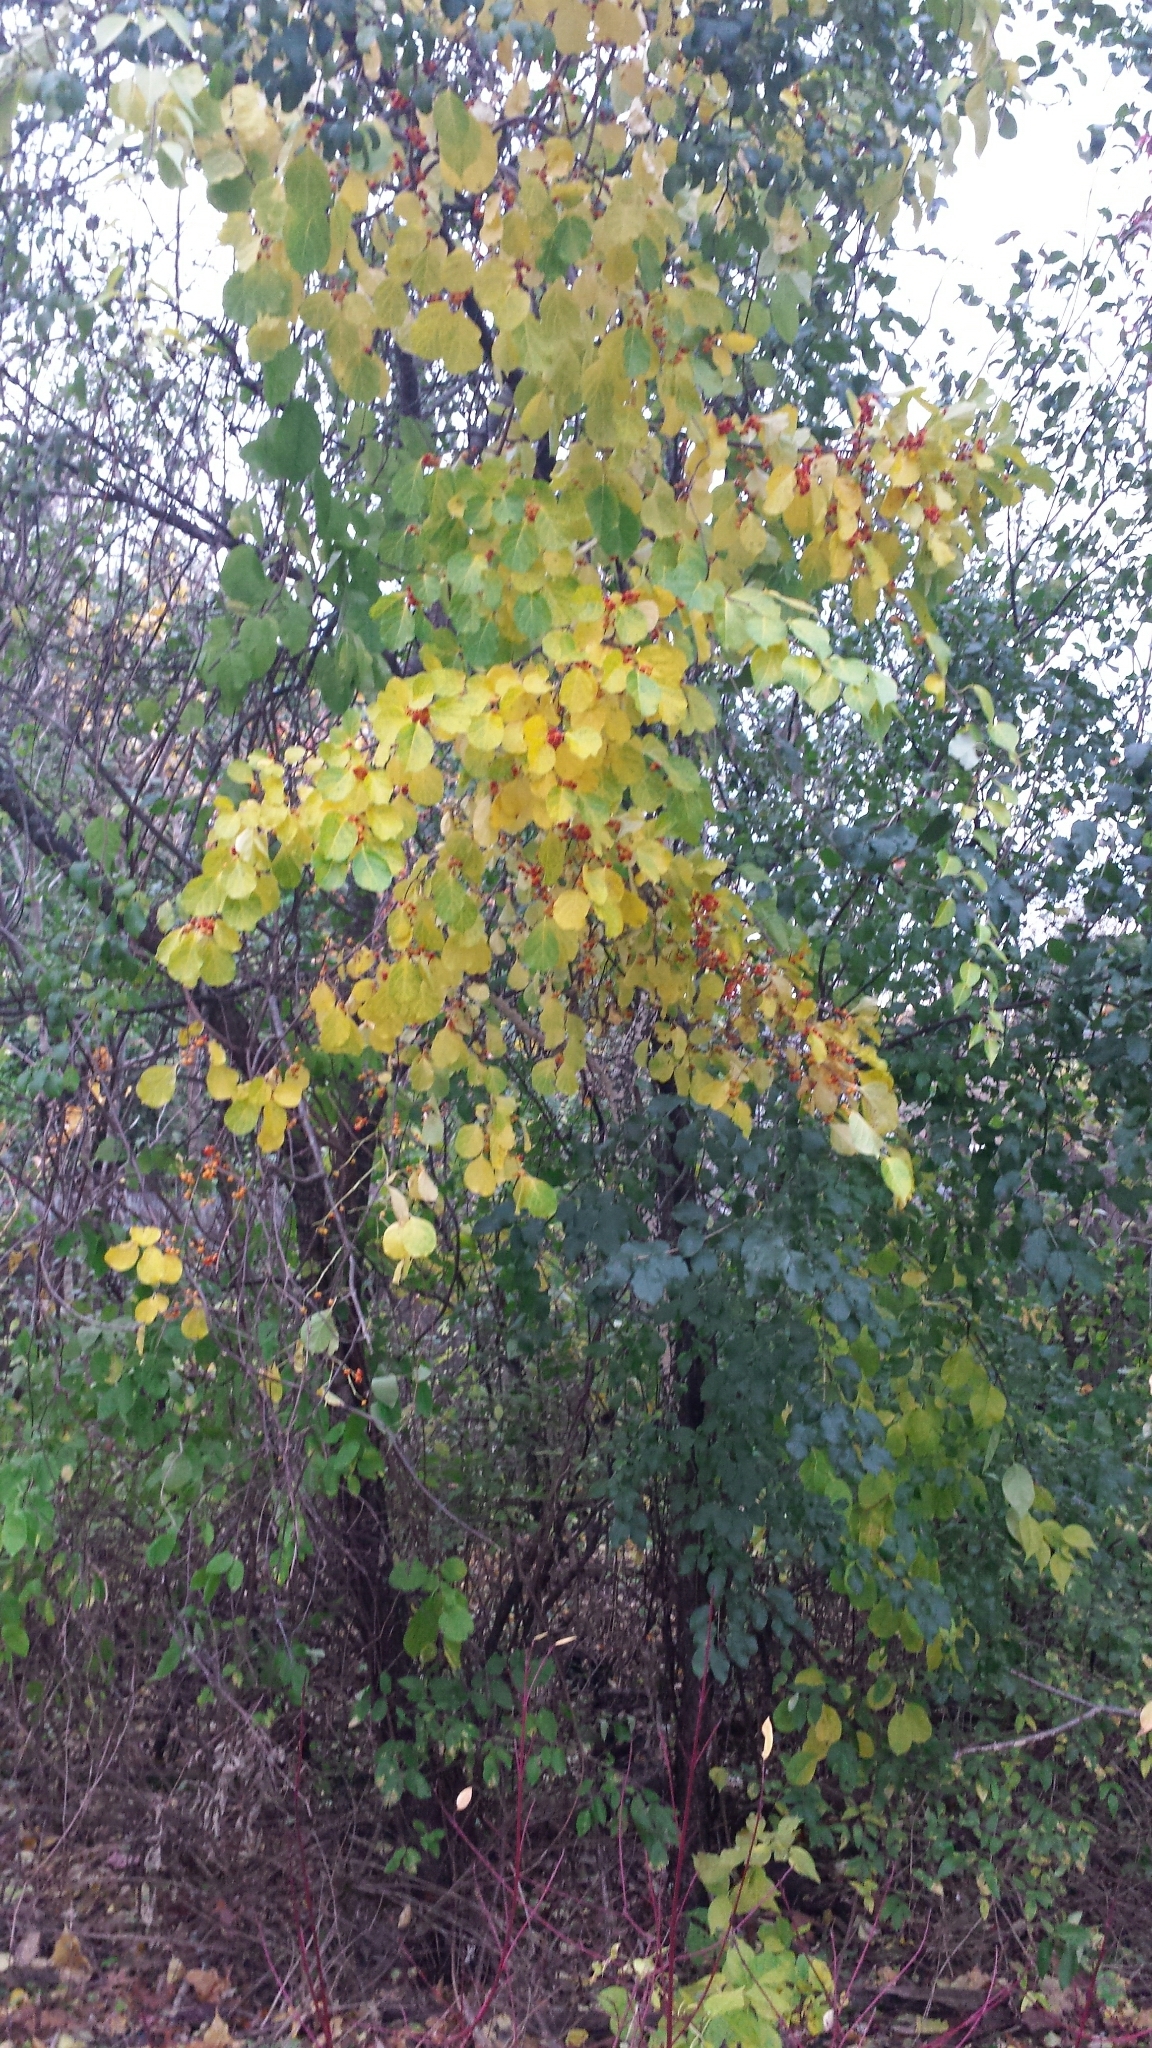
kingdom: Plantae
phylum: Tracheophyta
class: Magnoliopsida
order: Celastrales
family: Celastraceae
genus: Celastrus
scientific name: Celastrus orbiculatus
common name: Oriental bittersweet
